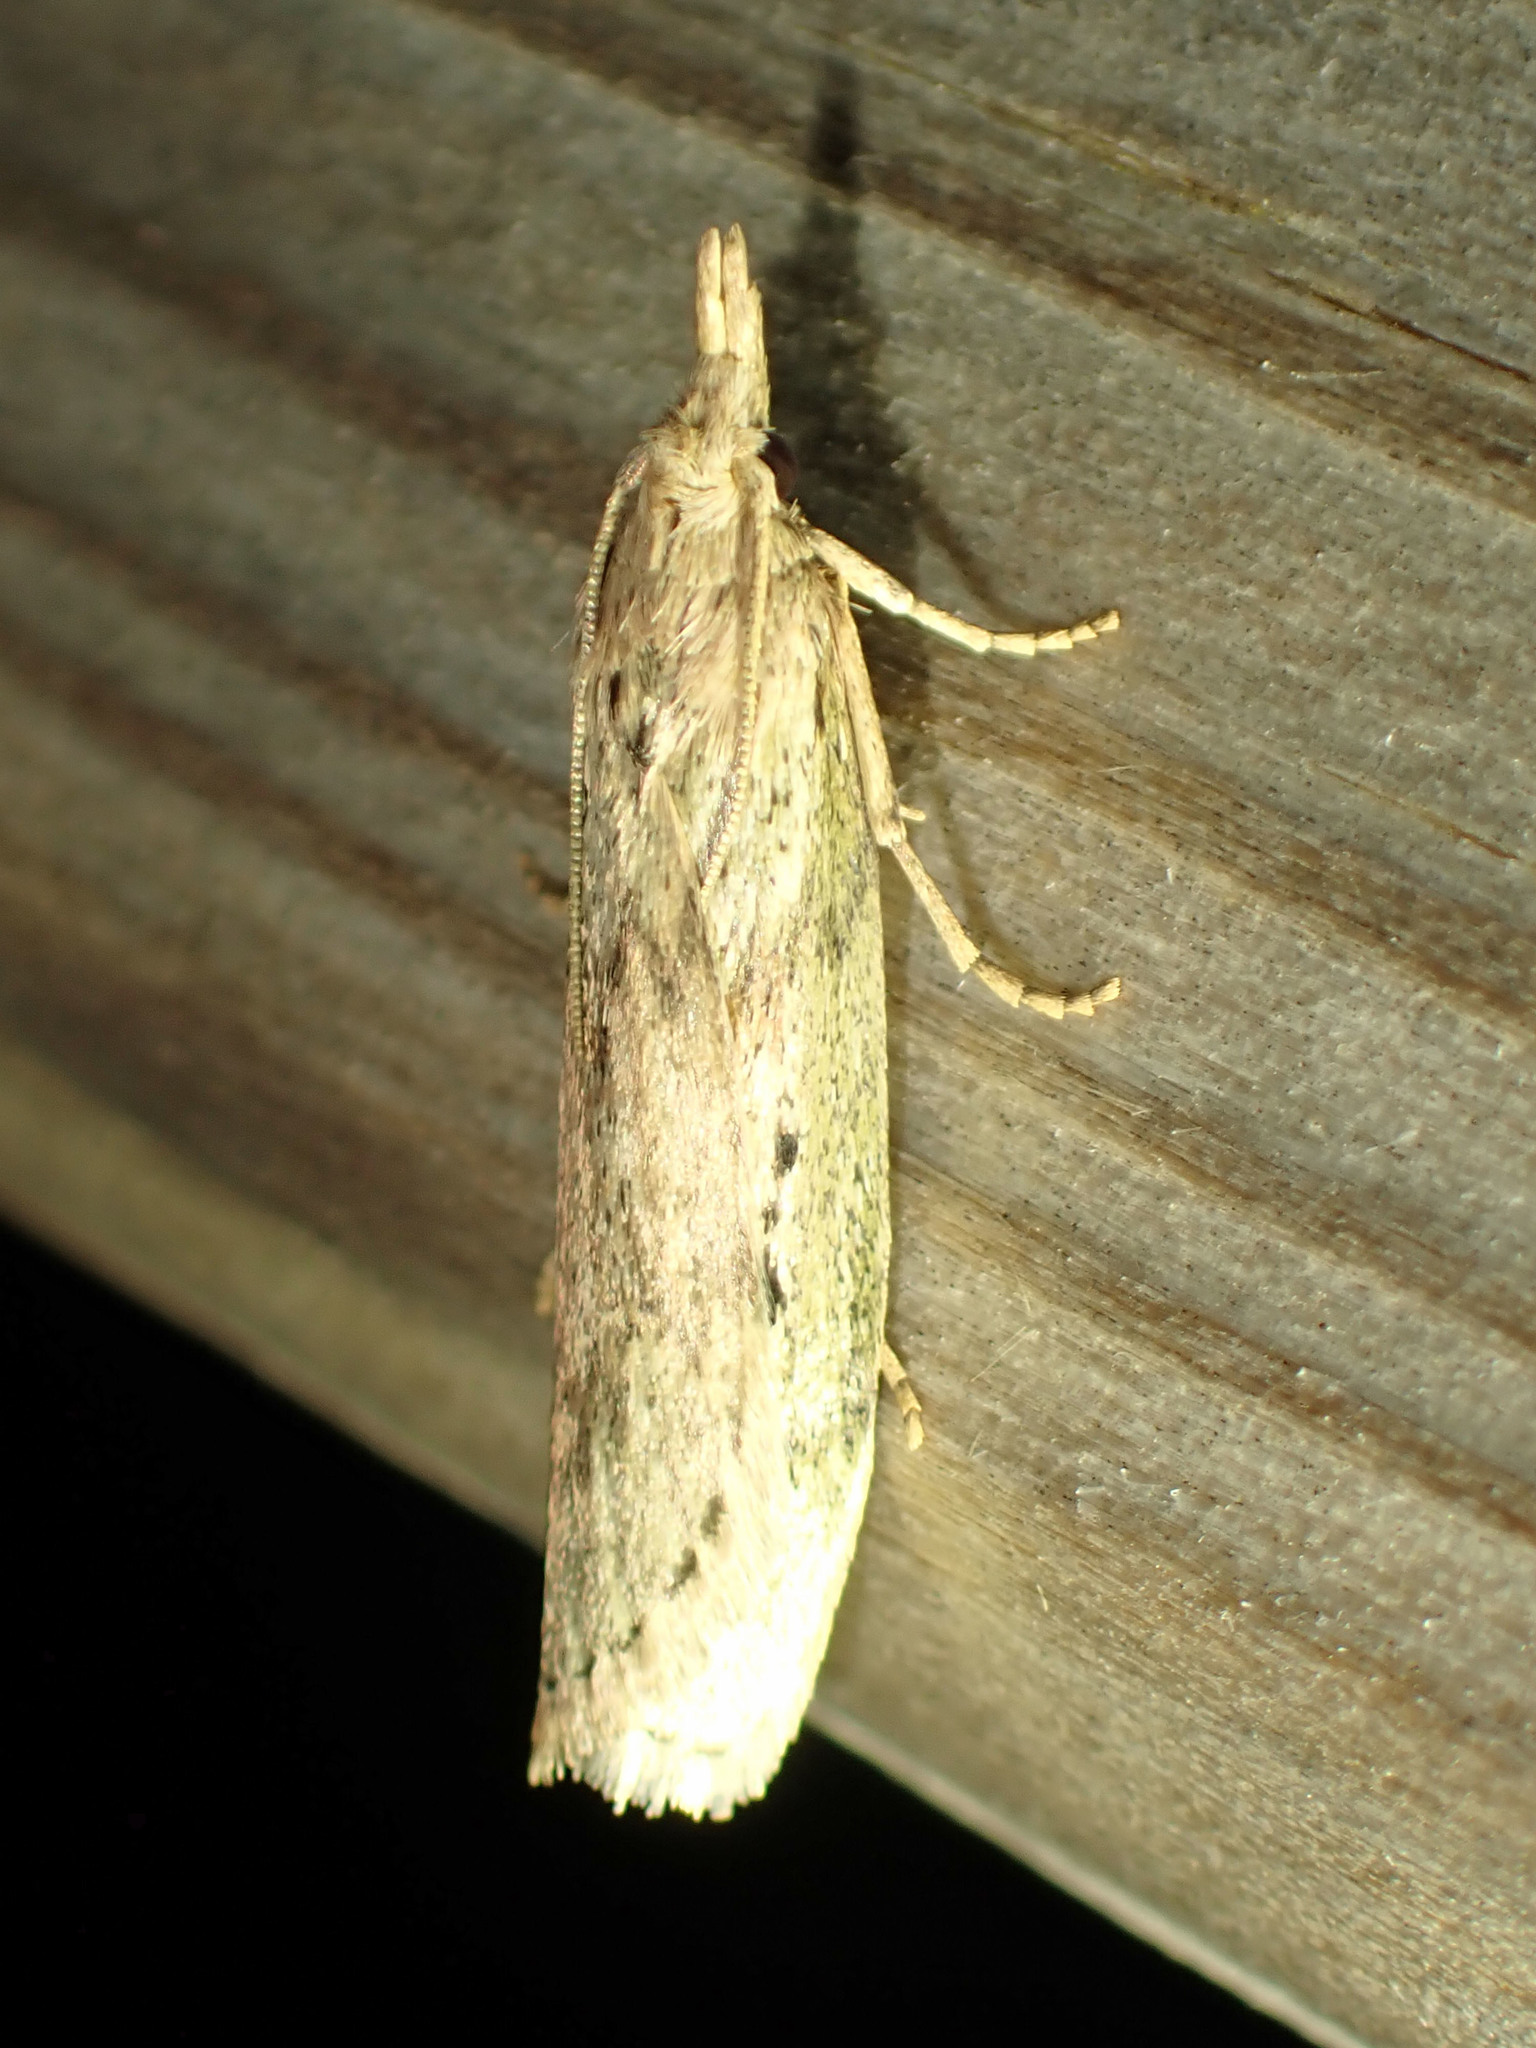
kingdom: Animalia
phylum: Arthropoda
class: Insecta
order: Lepidoptera
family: Pyralidae
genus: Aphomia
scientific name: Aphomia sociella
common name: Bee moth
